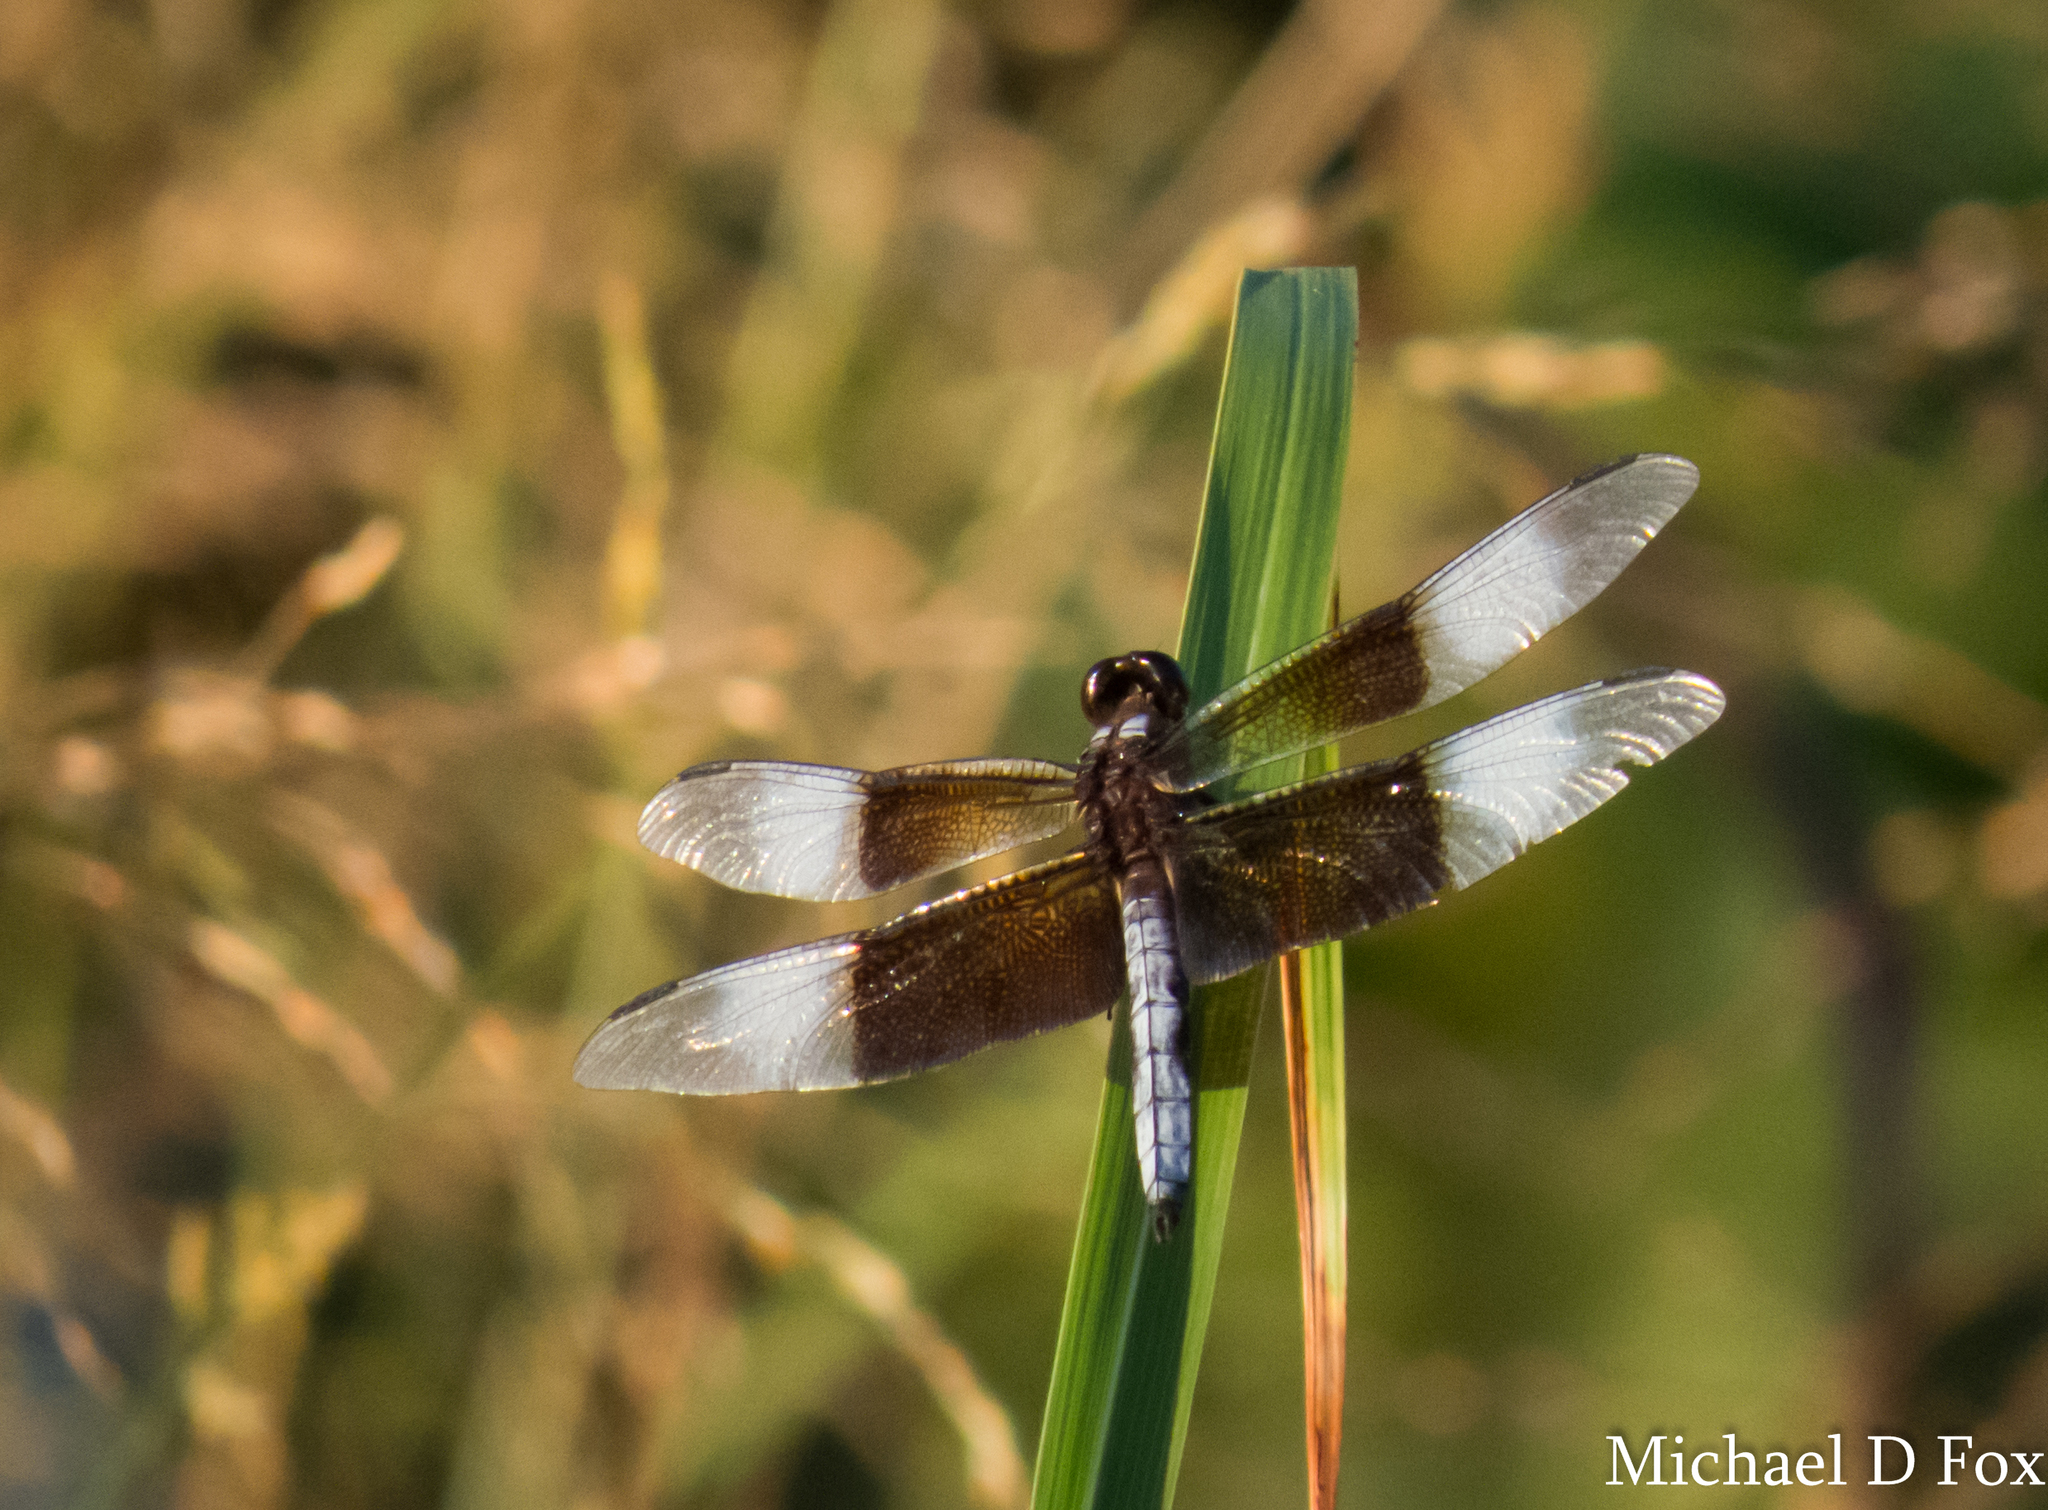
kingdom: Animalia
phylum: Arthropoda
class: Insecta
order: Odonata
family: Libellulidae
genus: Libellula
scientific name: Libellula luctuosa
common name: Widow skimmer
